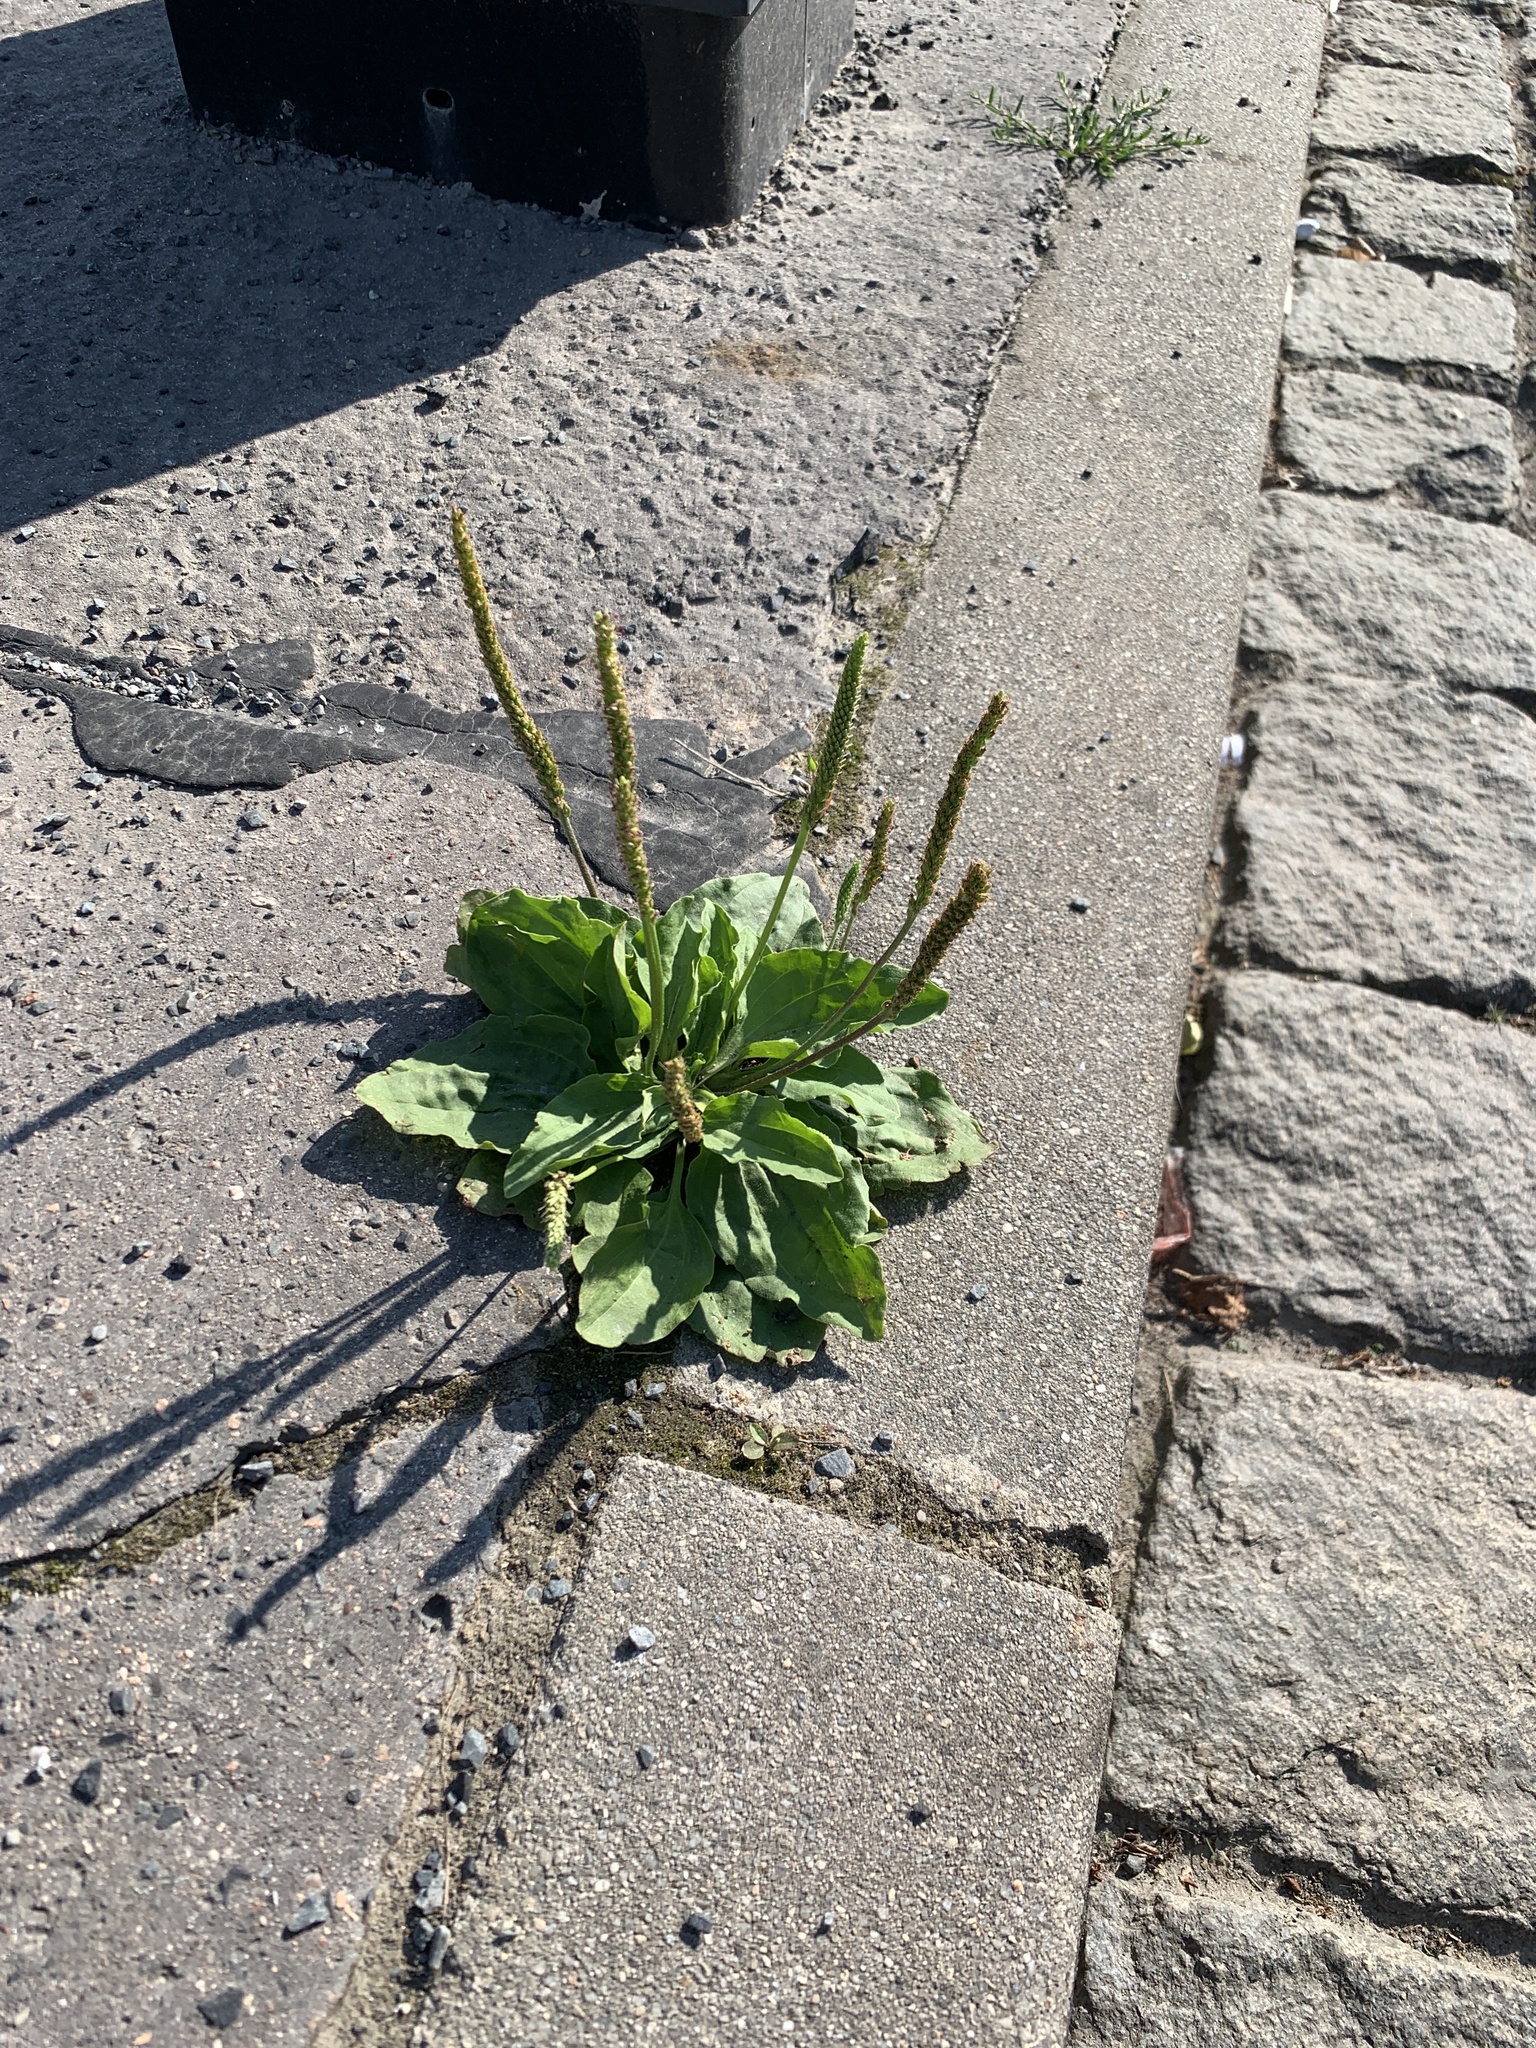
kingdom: Plantae
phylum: Tracheophyta
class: Magnoliopsida
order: Lamiales
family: Plantaginaceae
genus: Plantago
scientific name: Plantago major
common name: Common plantain
